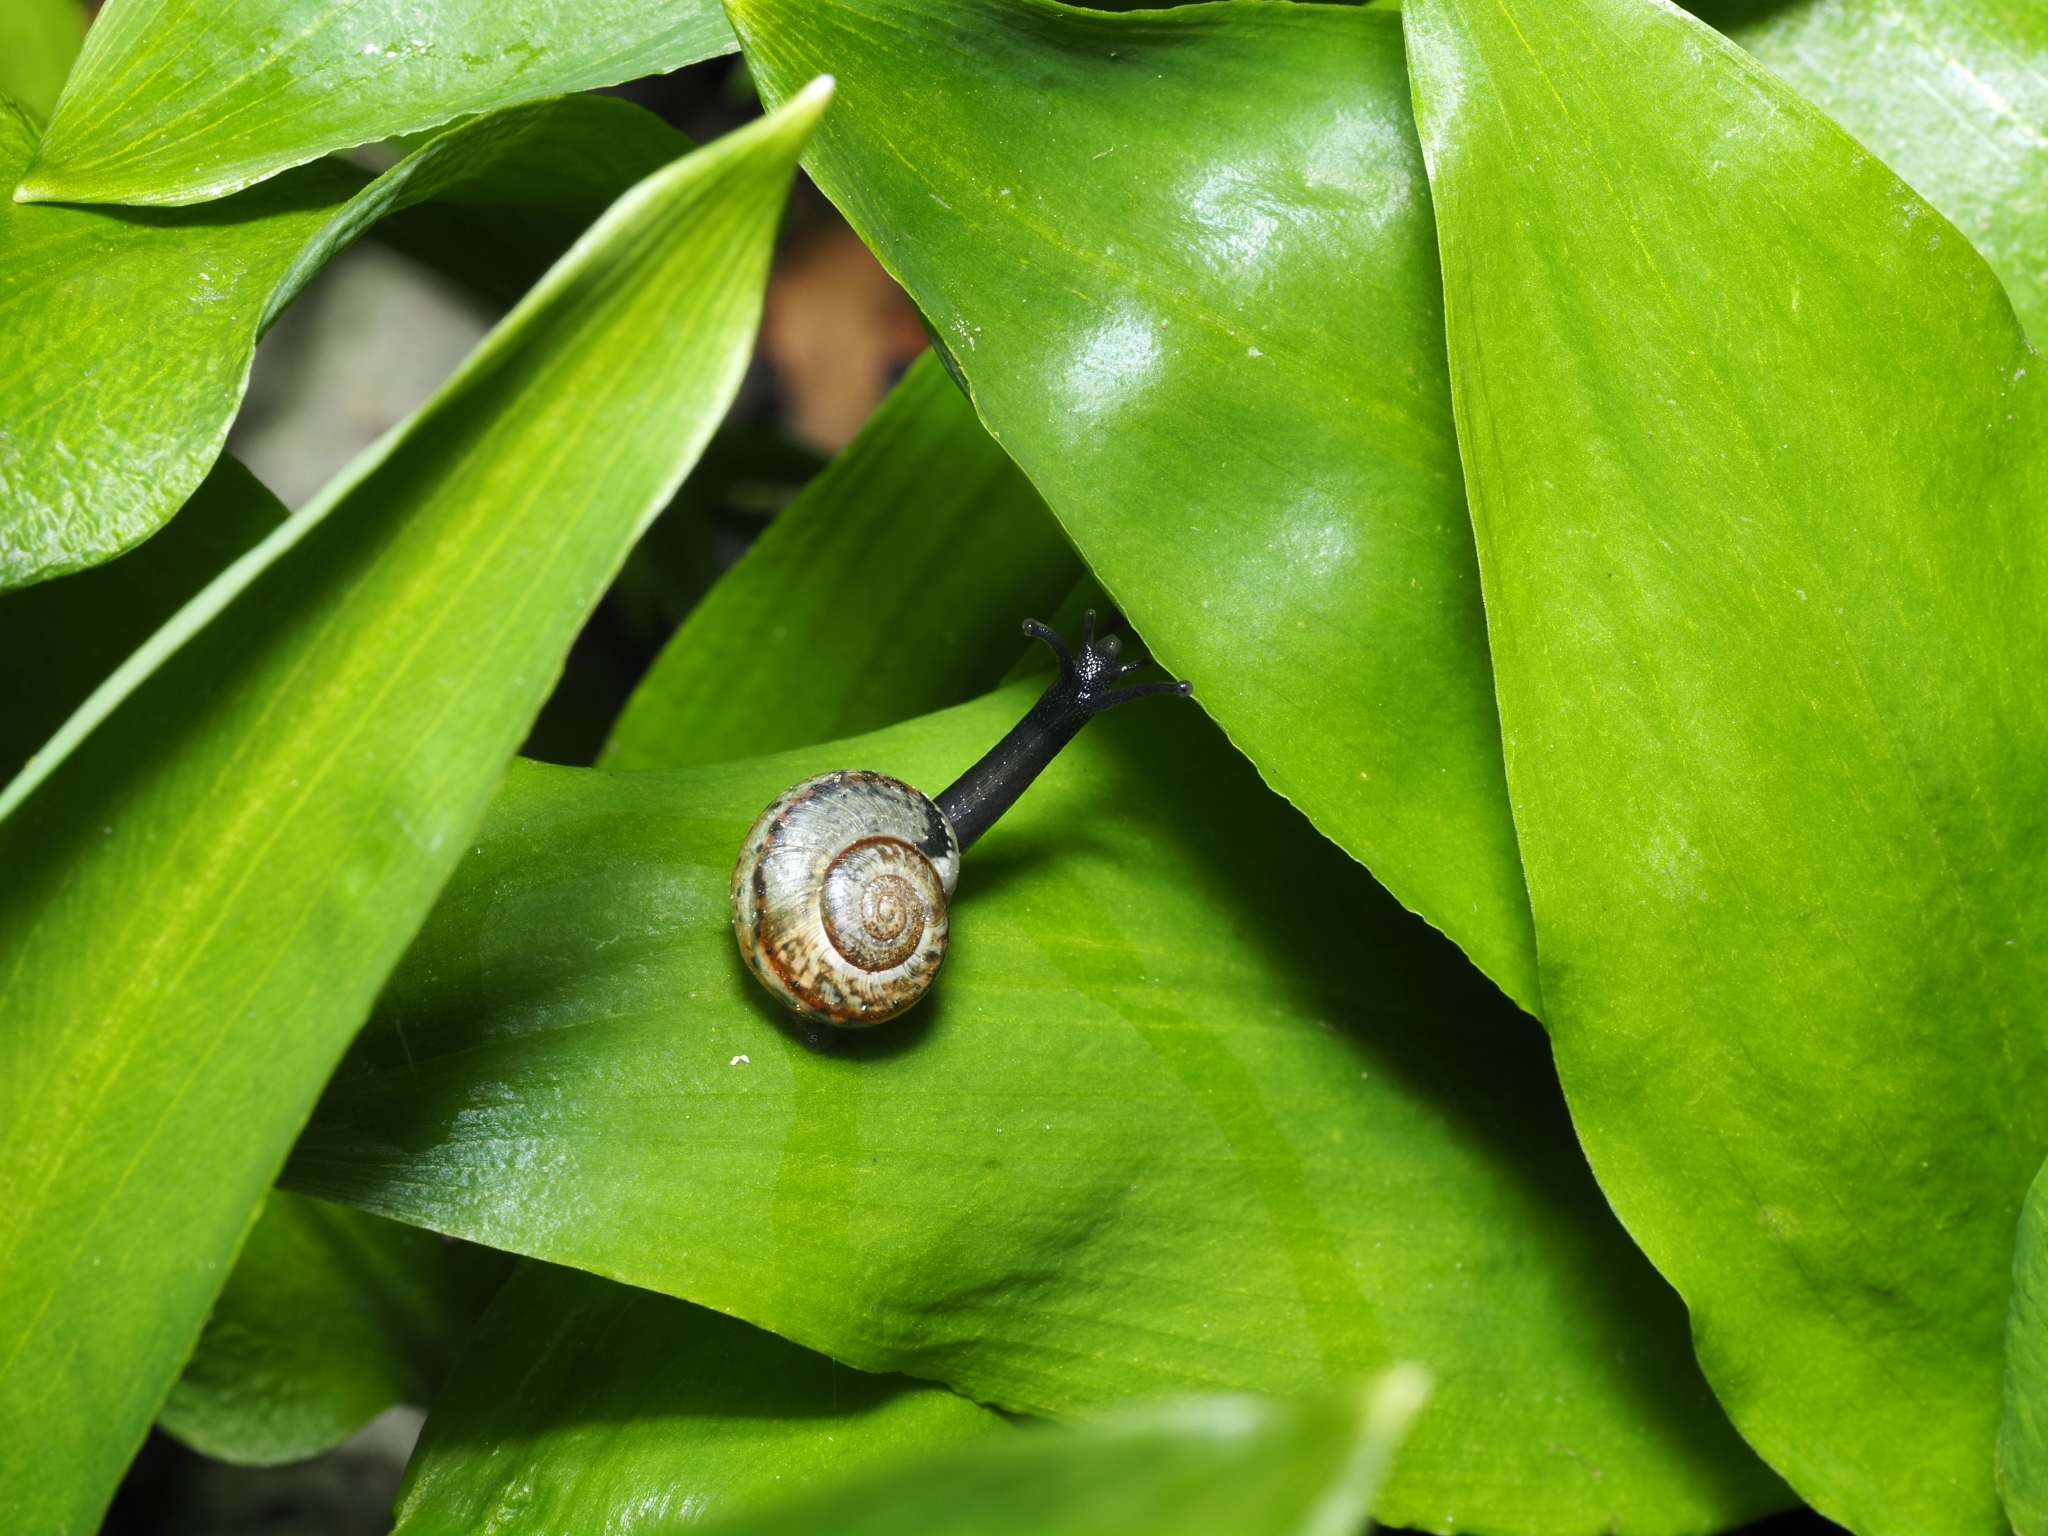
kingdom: Animalia
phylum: Mollusca
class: Gastropoda
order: Stylommatophora
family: Helicidae
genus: Arianta
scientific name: Arianta arbustorum
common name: Copse snail
